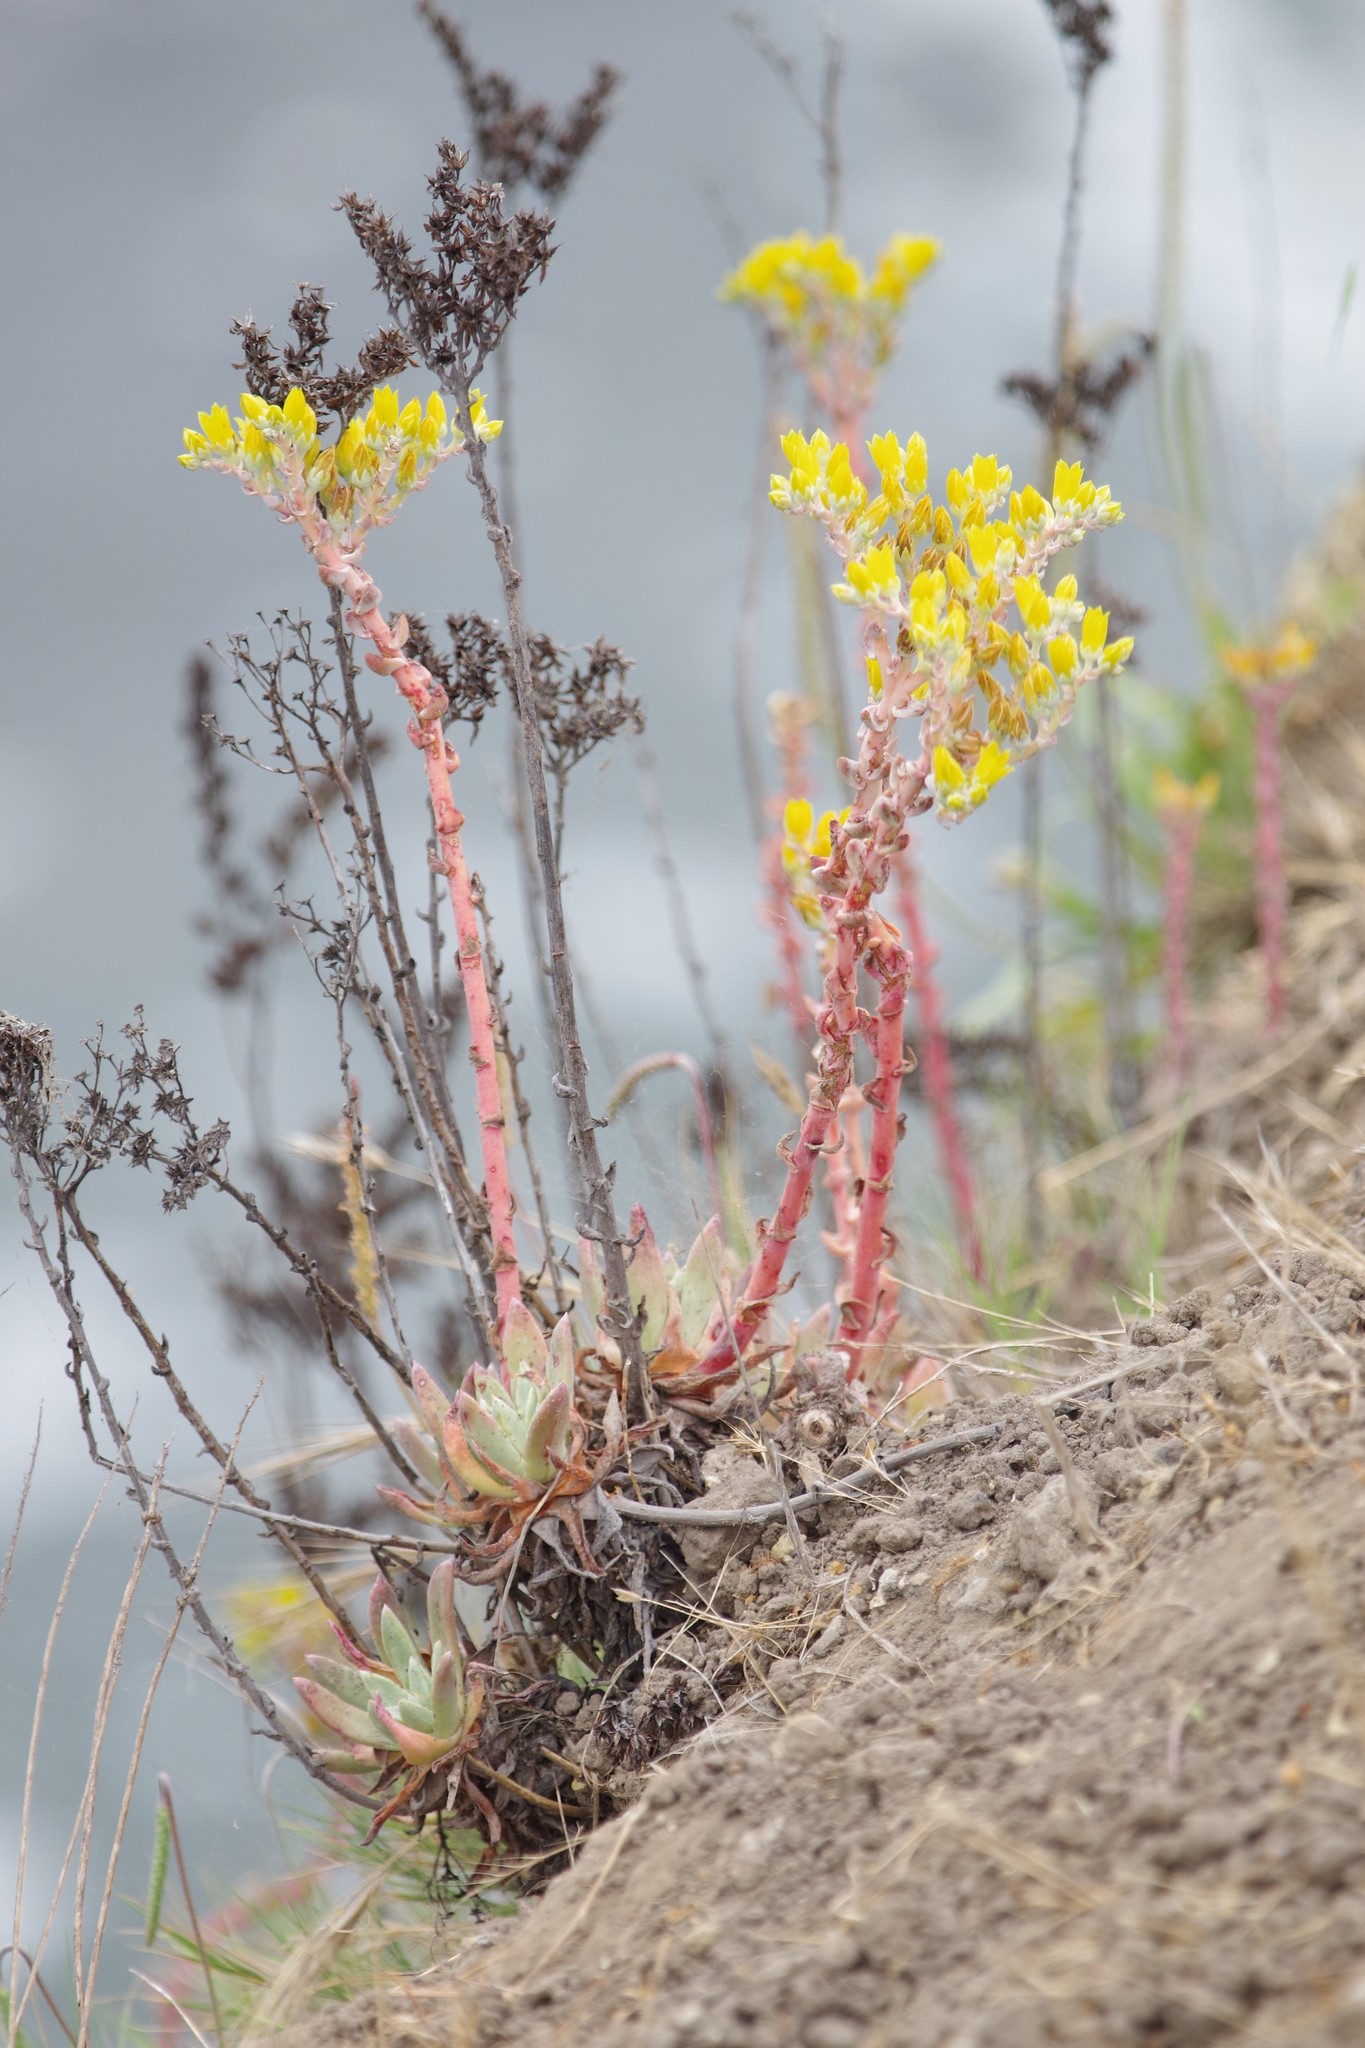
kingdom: Plantae
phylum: Tracheophyta
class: Magnoliopsida
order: Saxifragales
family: Crassulaceae
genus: Dudleya
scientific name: Dudleya caespitosa
